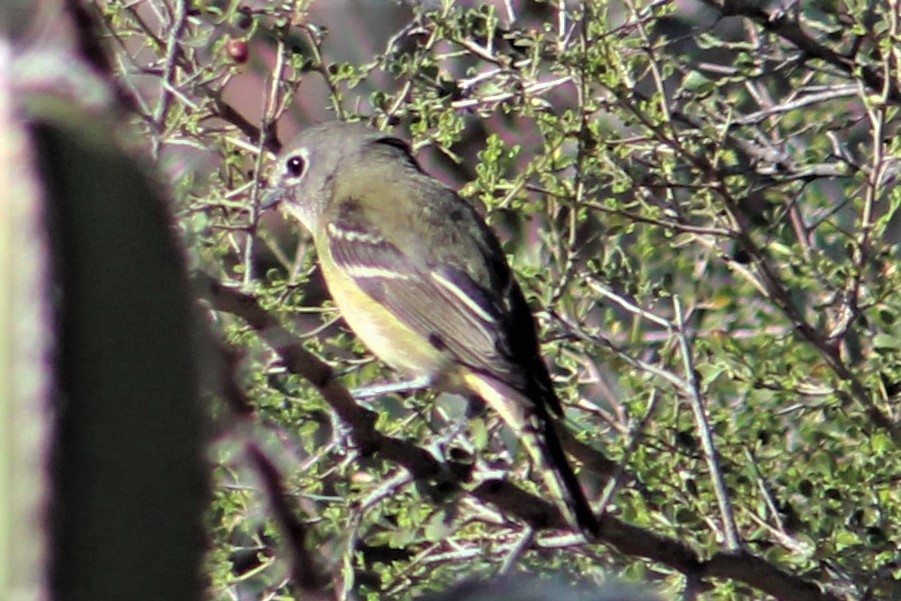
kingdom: Animalia
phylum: Chordata
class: Aves
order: Passeriformes
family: Vireonidae
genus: Vireo
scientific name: Vireo cassinii
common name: Cassin's vireo
